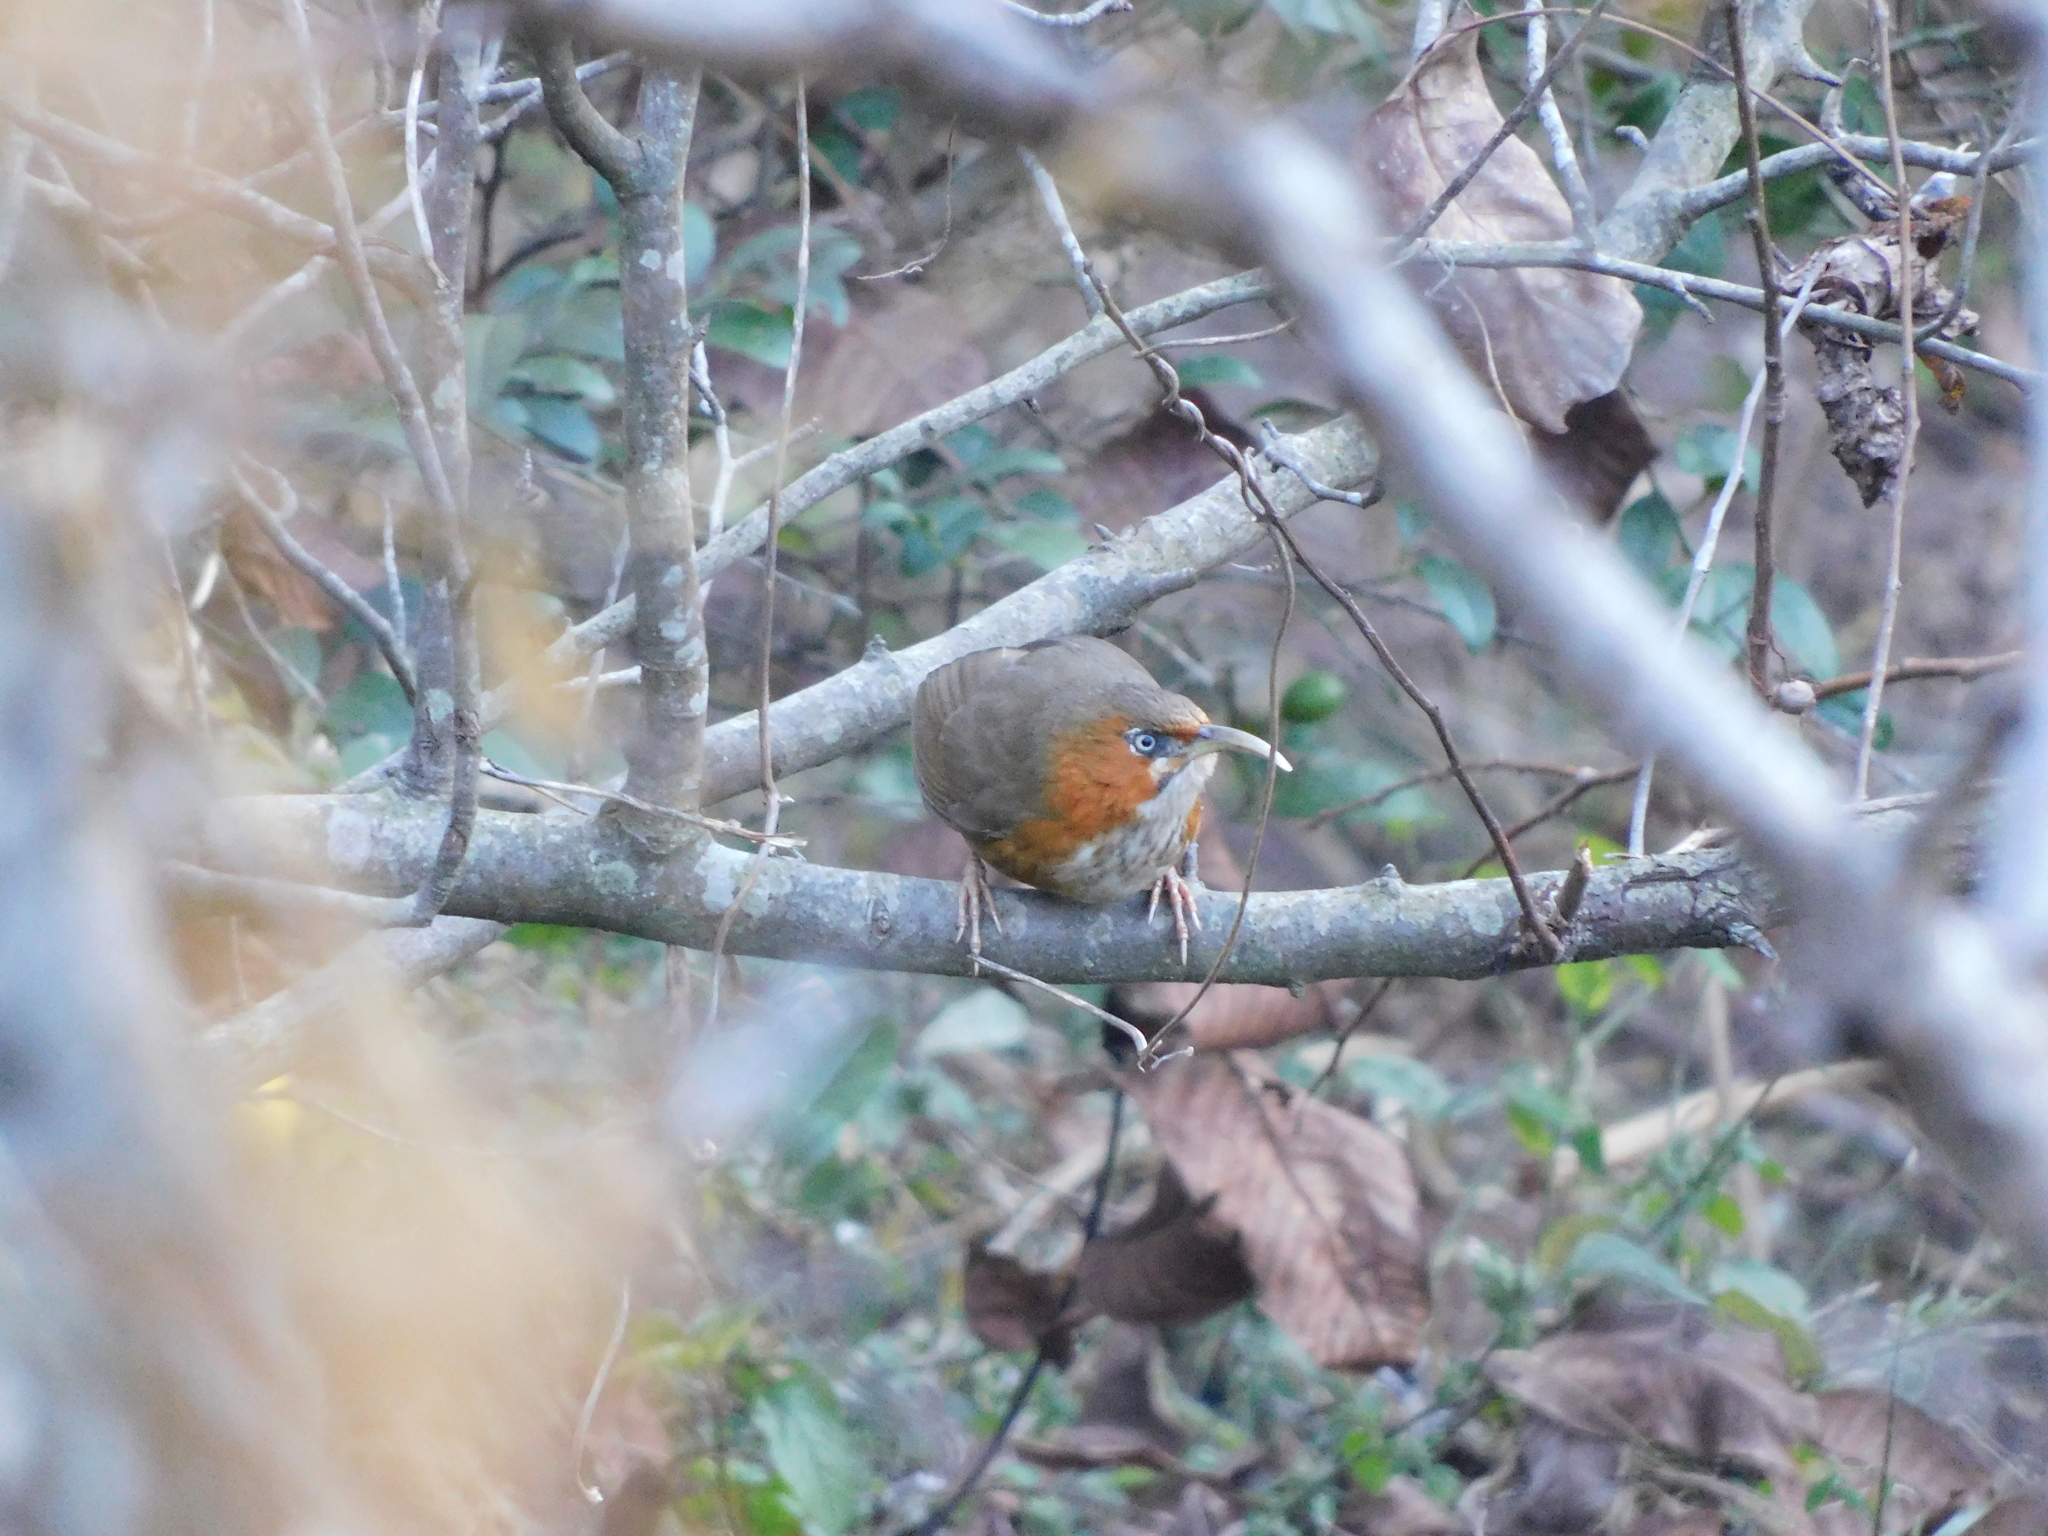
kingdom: Animalia
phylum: Chordata
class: Aves
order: Passeriformes
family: Timaliidae
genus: Pomatorhinus
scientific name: Pomatorhinus erythrogenys
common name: Rusty-cheeked scimitar babbler
